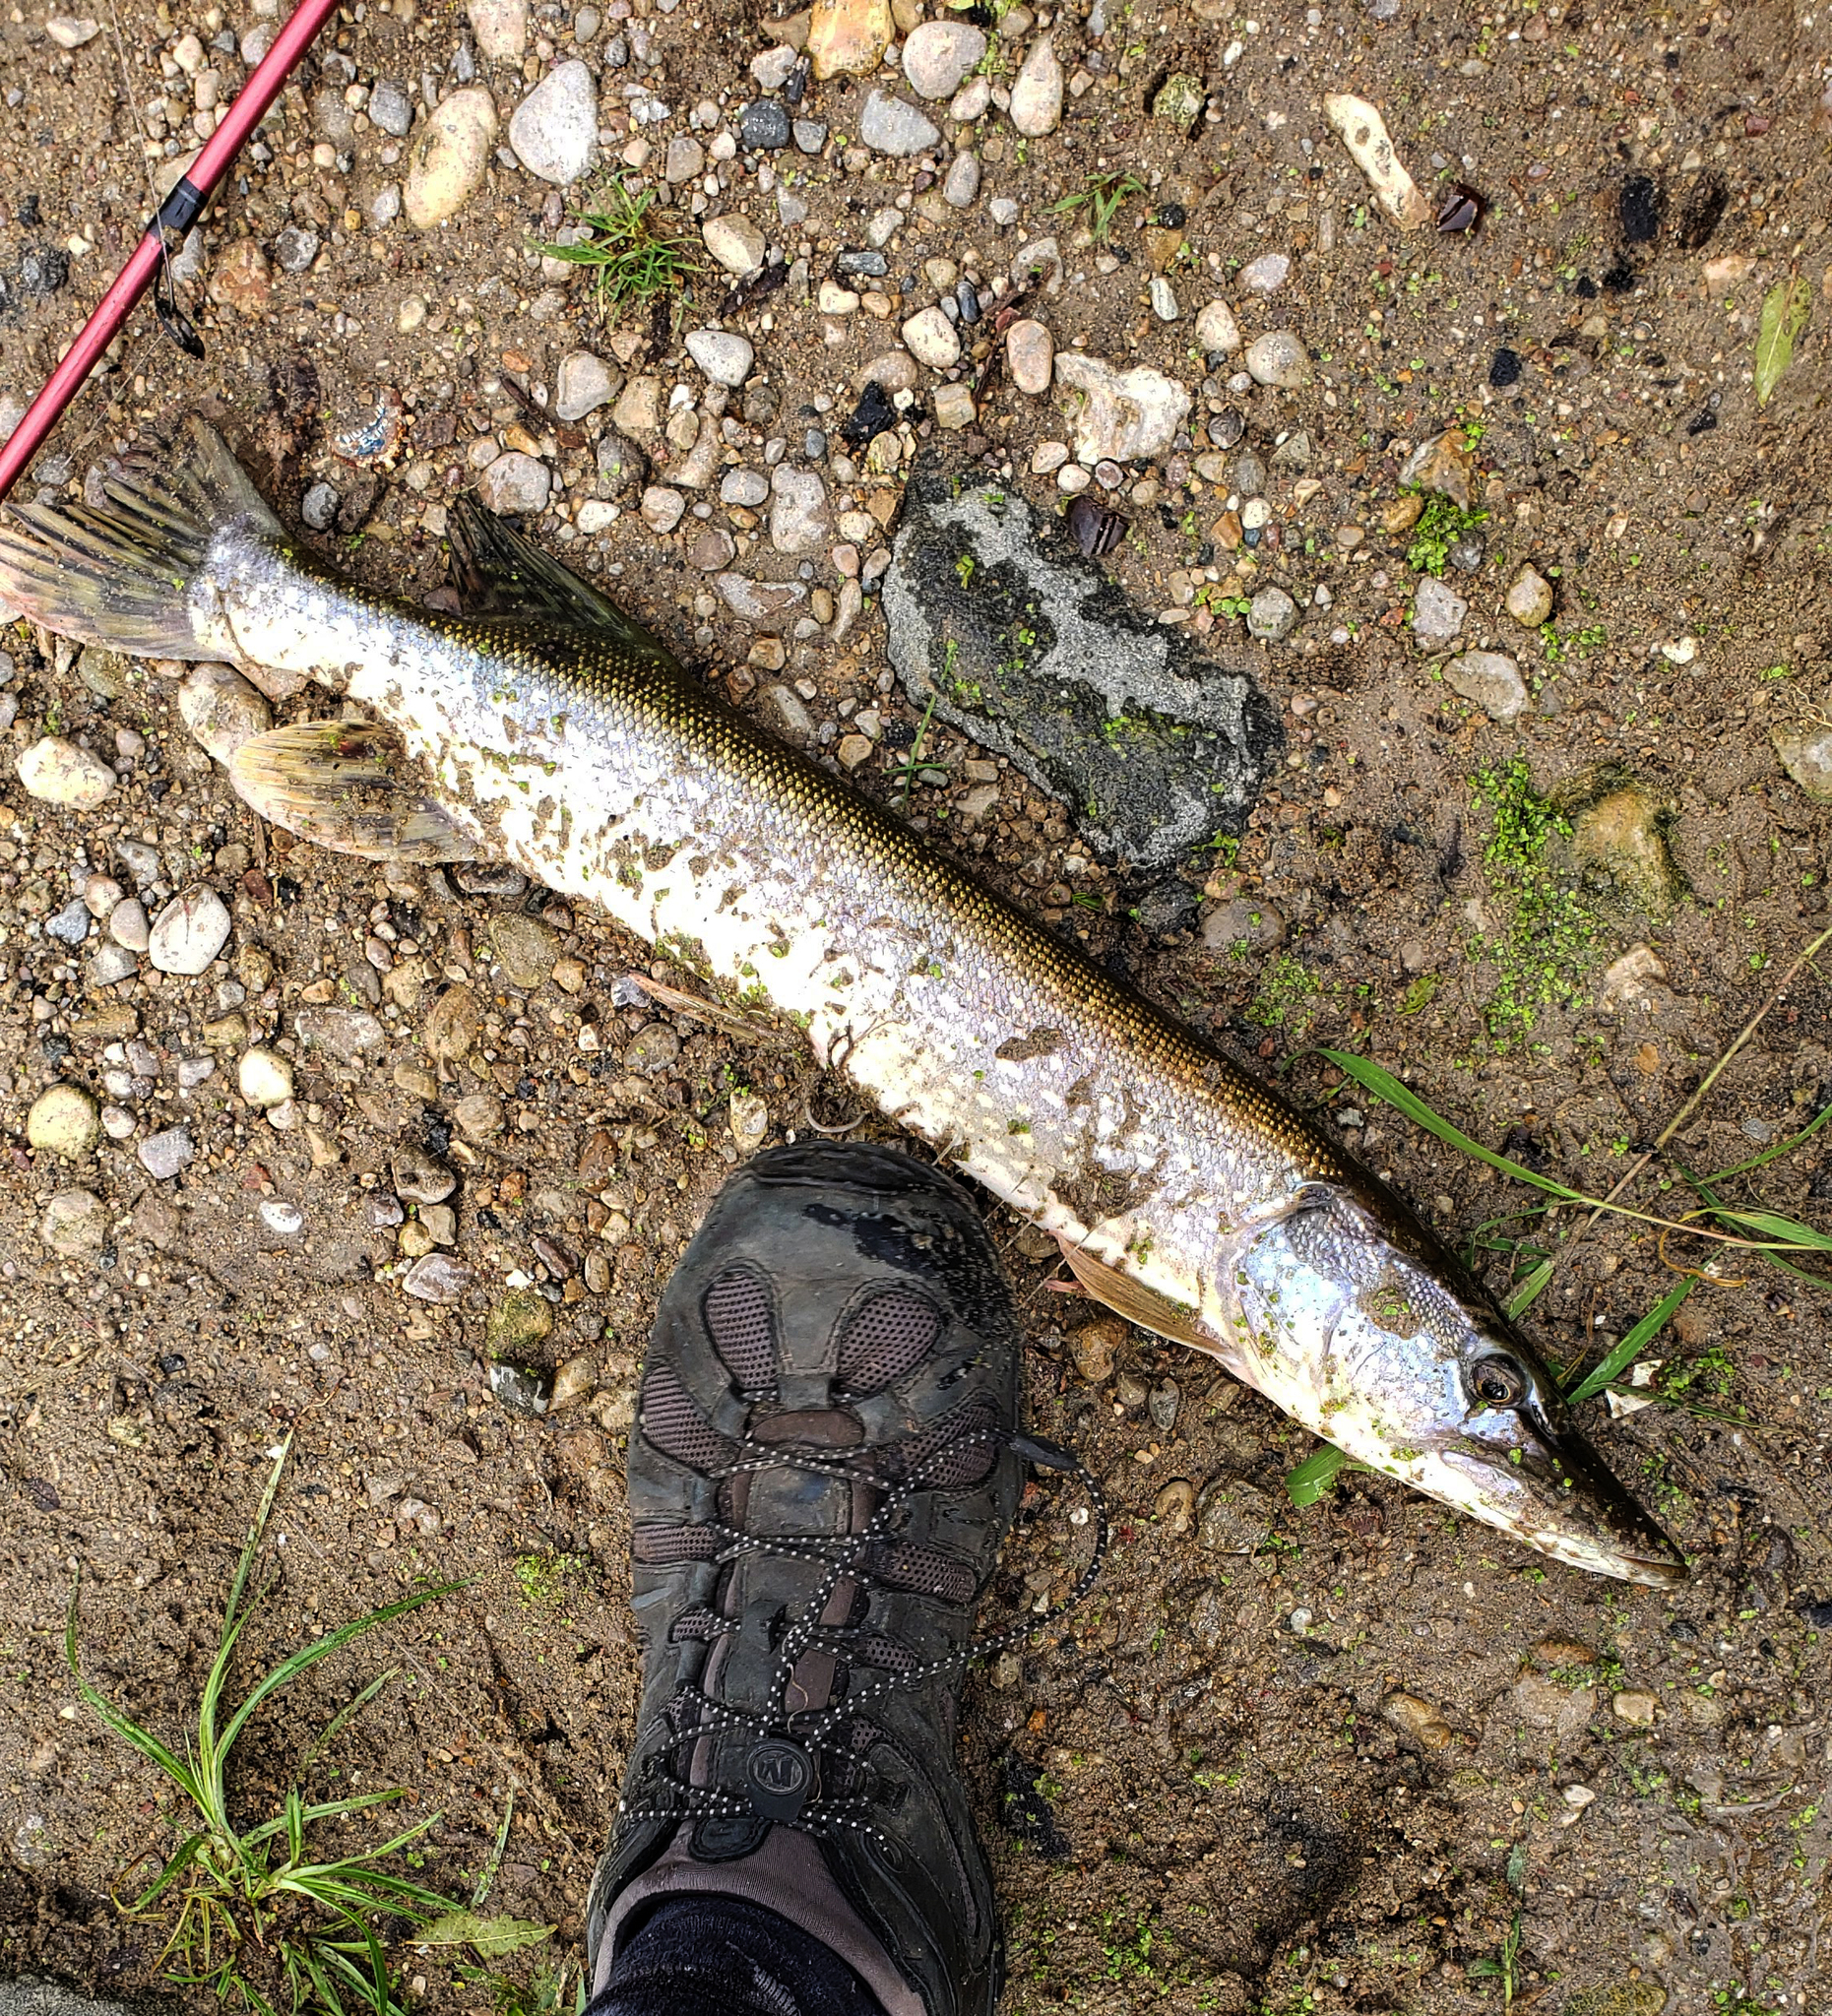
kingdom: Animalia
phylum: Chordata
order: Esociformes
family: Esocidae
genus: Esox
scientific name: Esox lucius
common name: Northern pike
